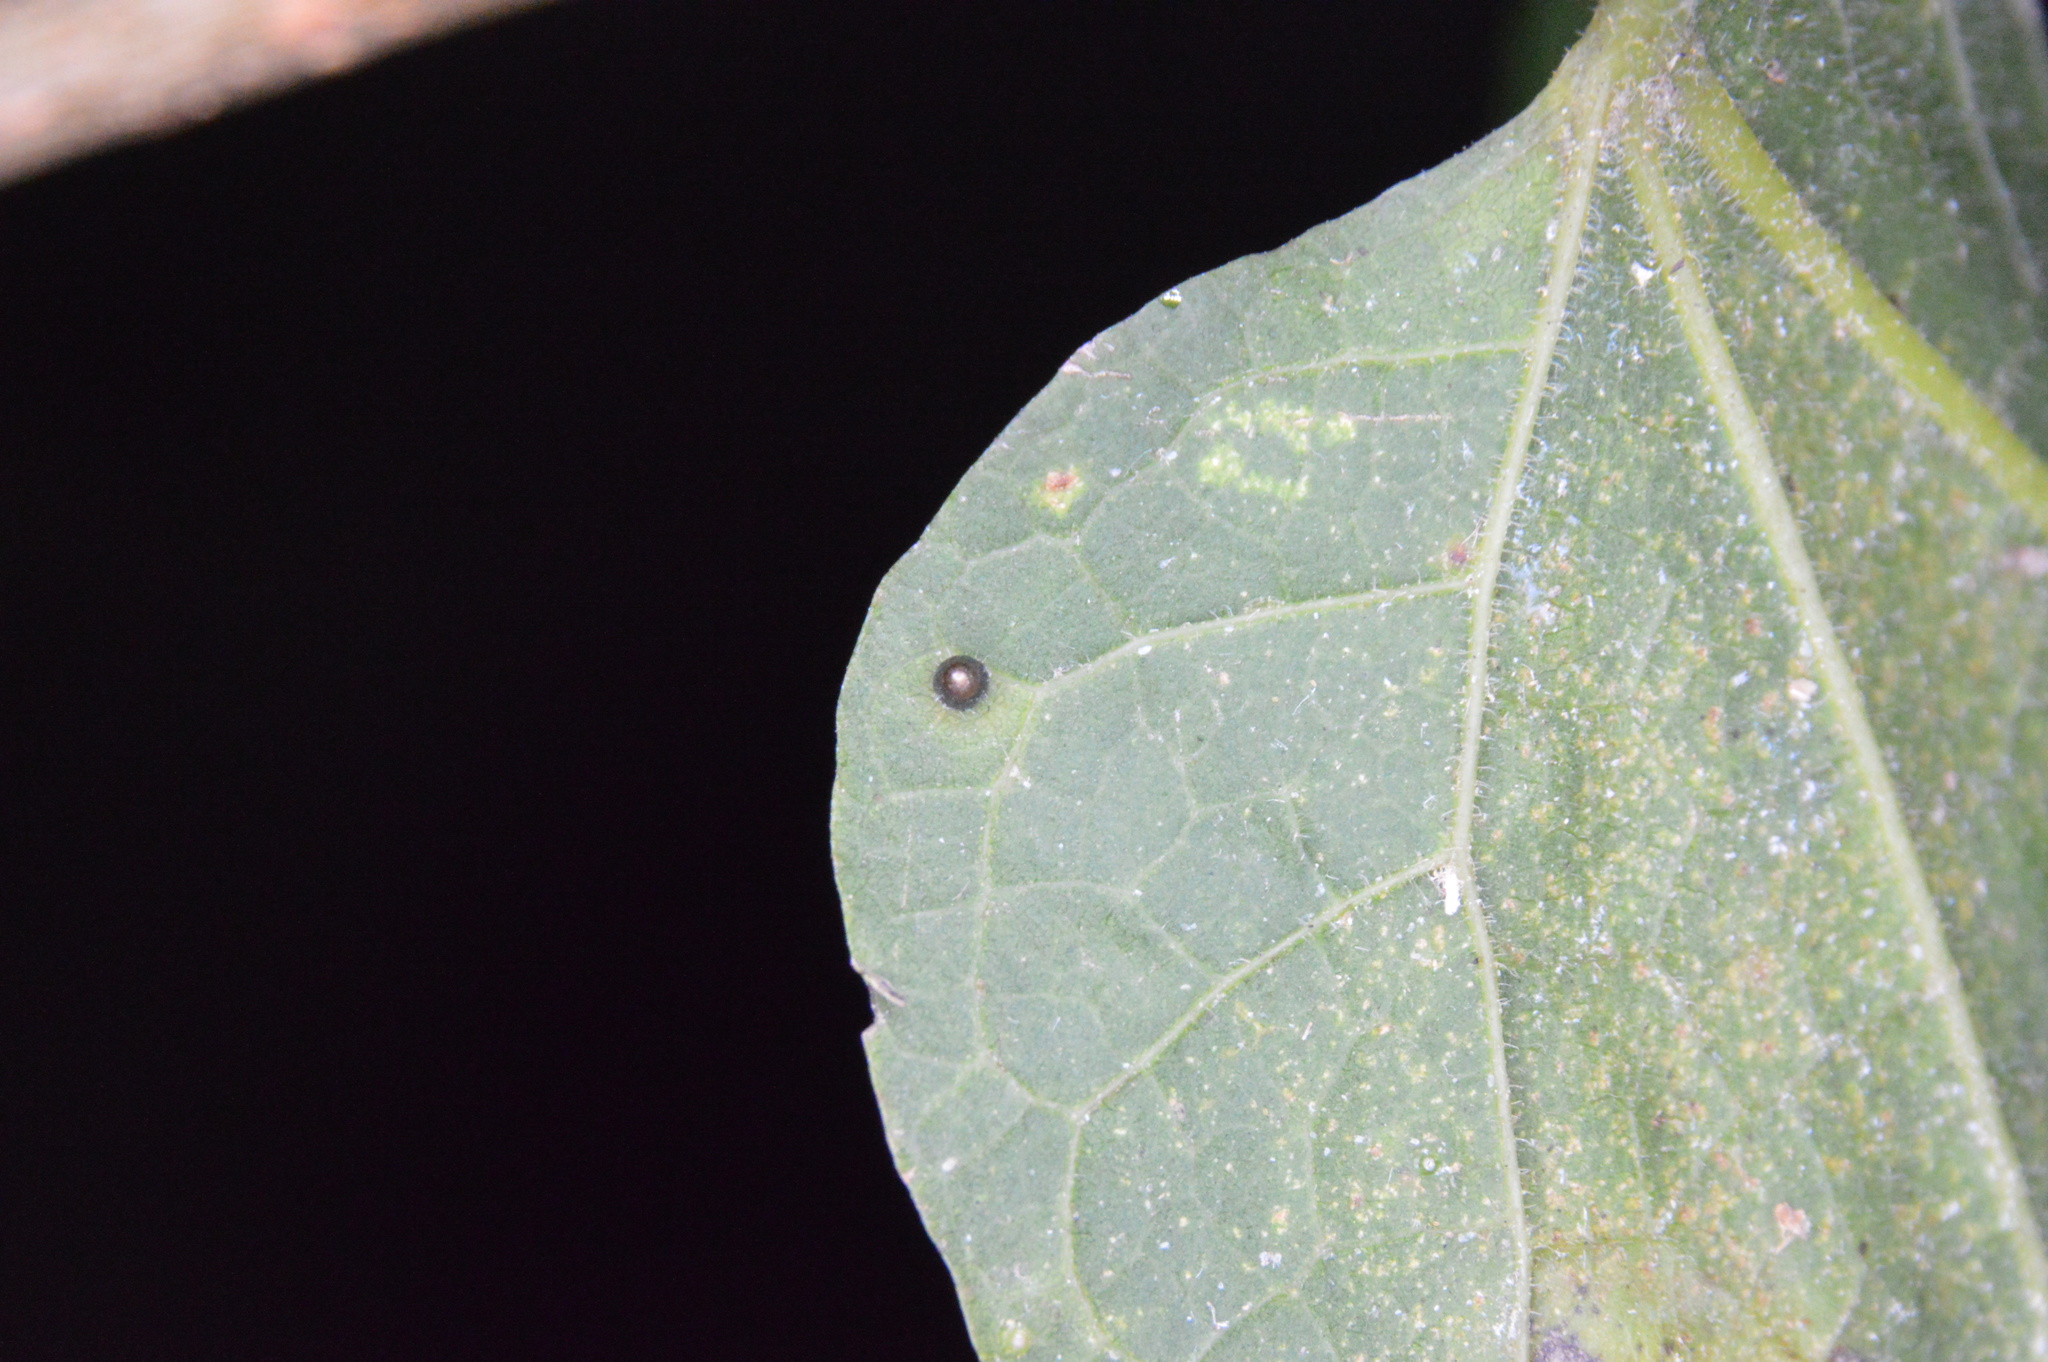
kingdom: Animalia
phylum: Arthropoda
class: Insecta
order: Diptera
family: Cecidomyiidae
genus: Celticecis
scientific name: Celticecis cupiformis
